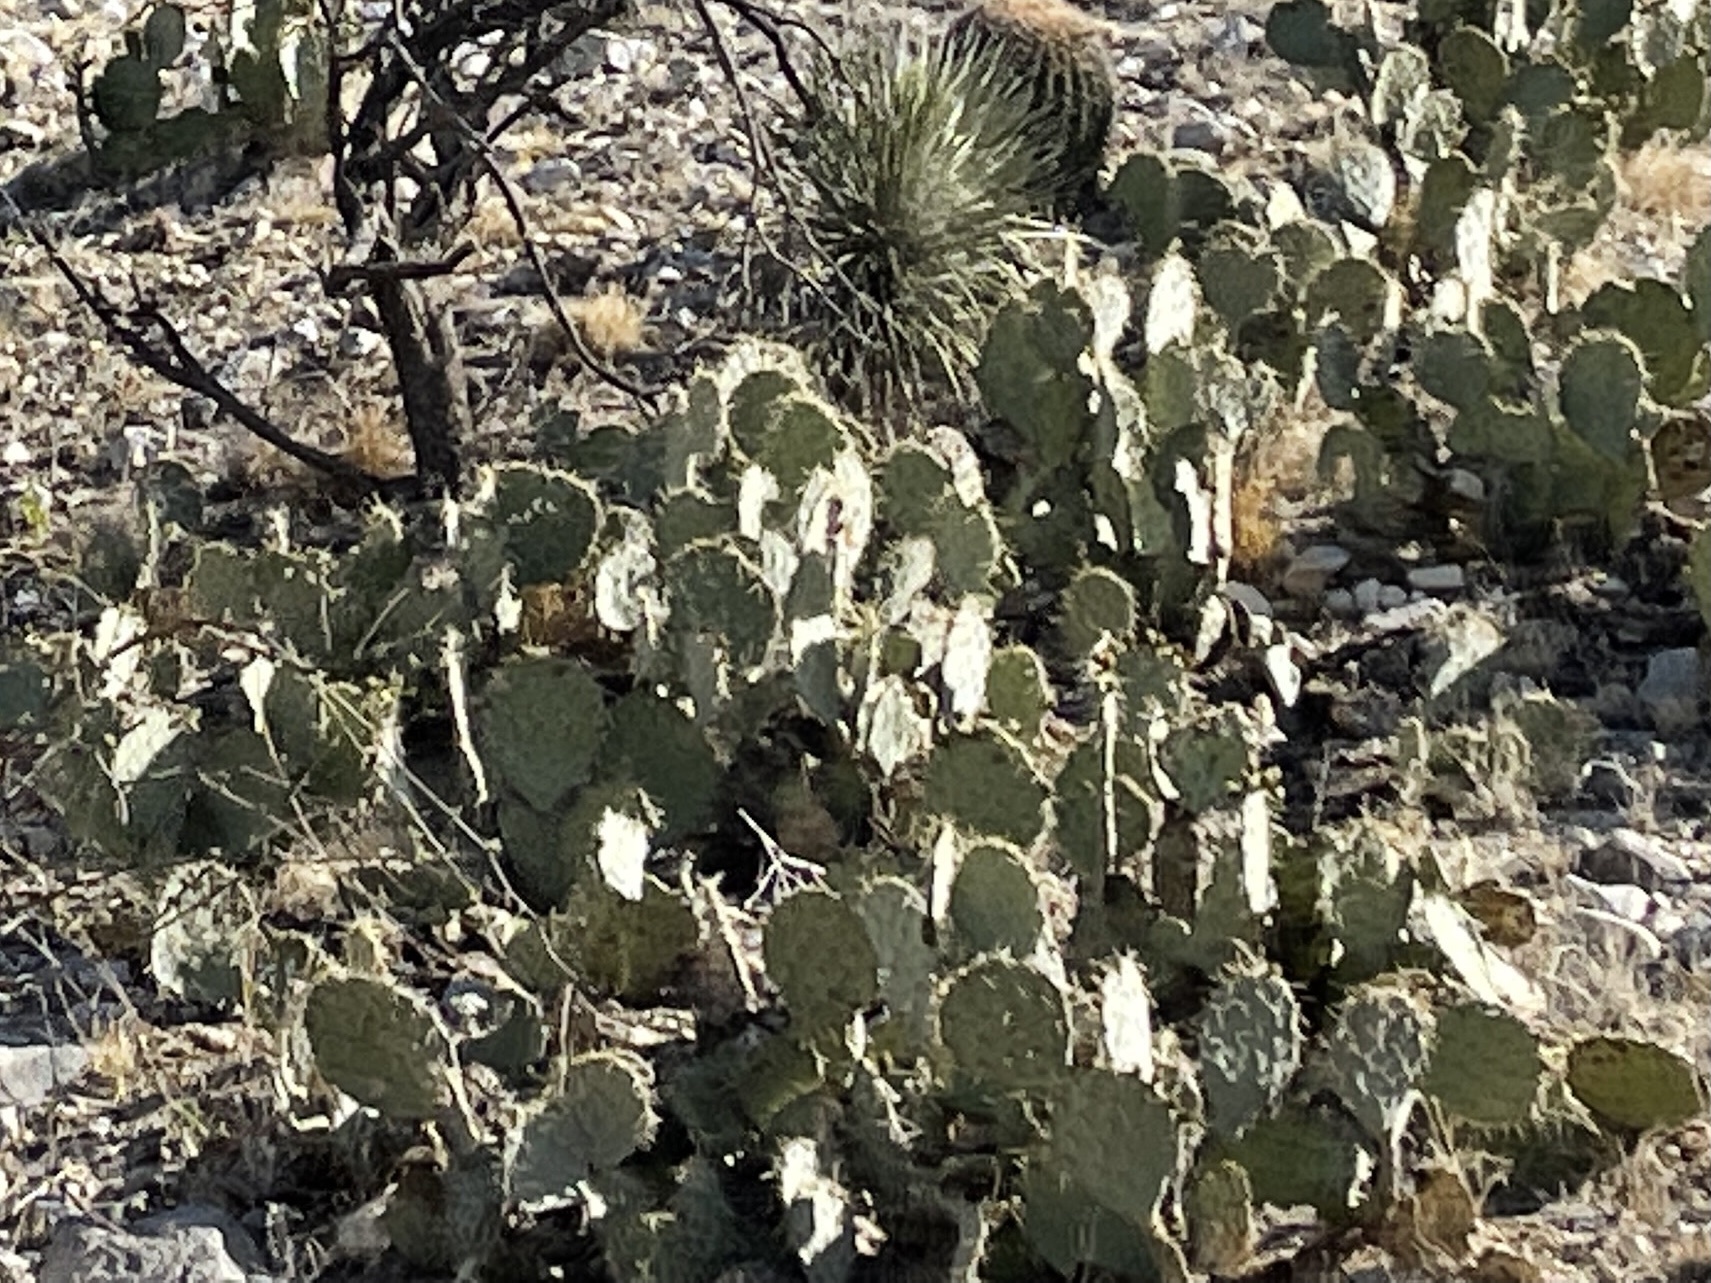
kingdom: Plantae
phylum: Tracheophyta
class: Magnoliopsida
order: Caryophyllales
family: Cactaceae
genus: Opuntia
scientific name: Opuntia engelmannii
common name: Cactus-apple
